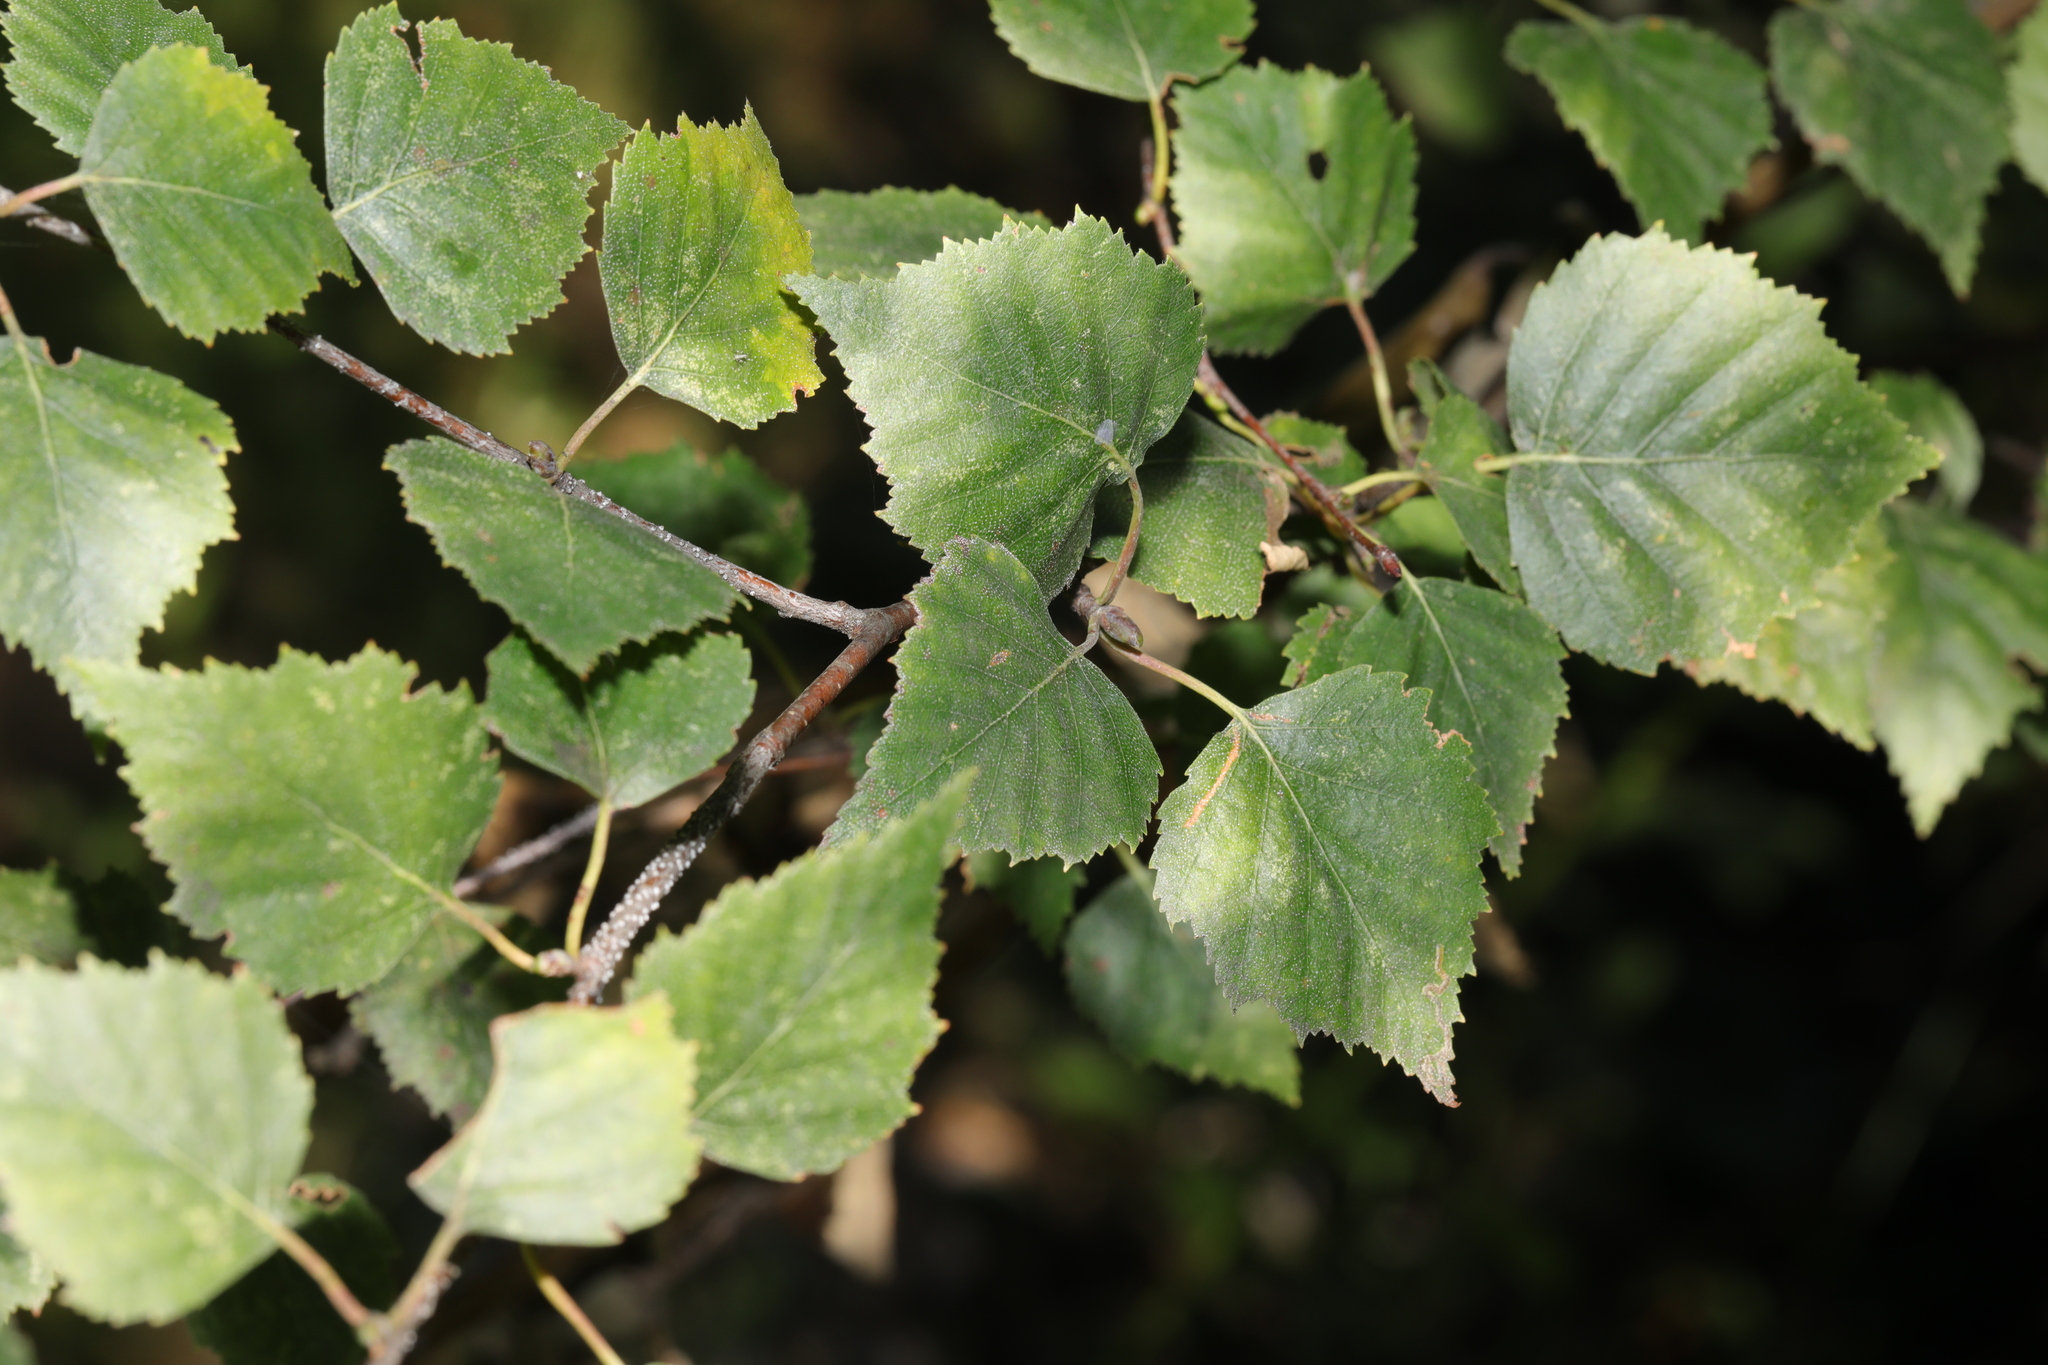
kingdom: Plantae
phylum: Tracheophyta
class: Magnoliopsida
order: Fagales
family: Betulaceae
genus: Betula
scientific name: Betula pendula
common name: Silver birch
